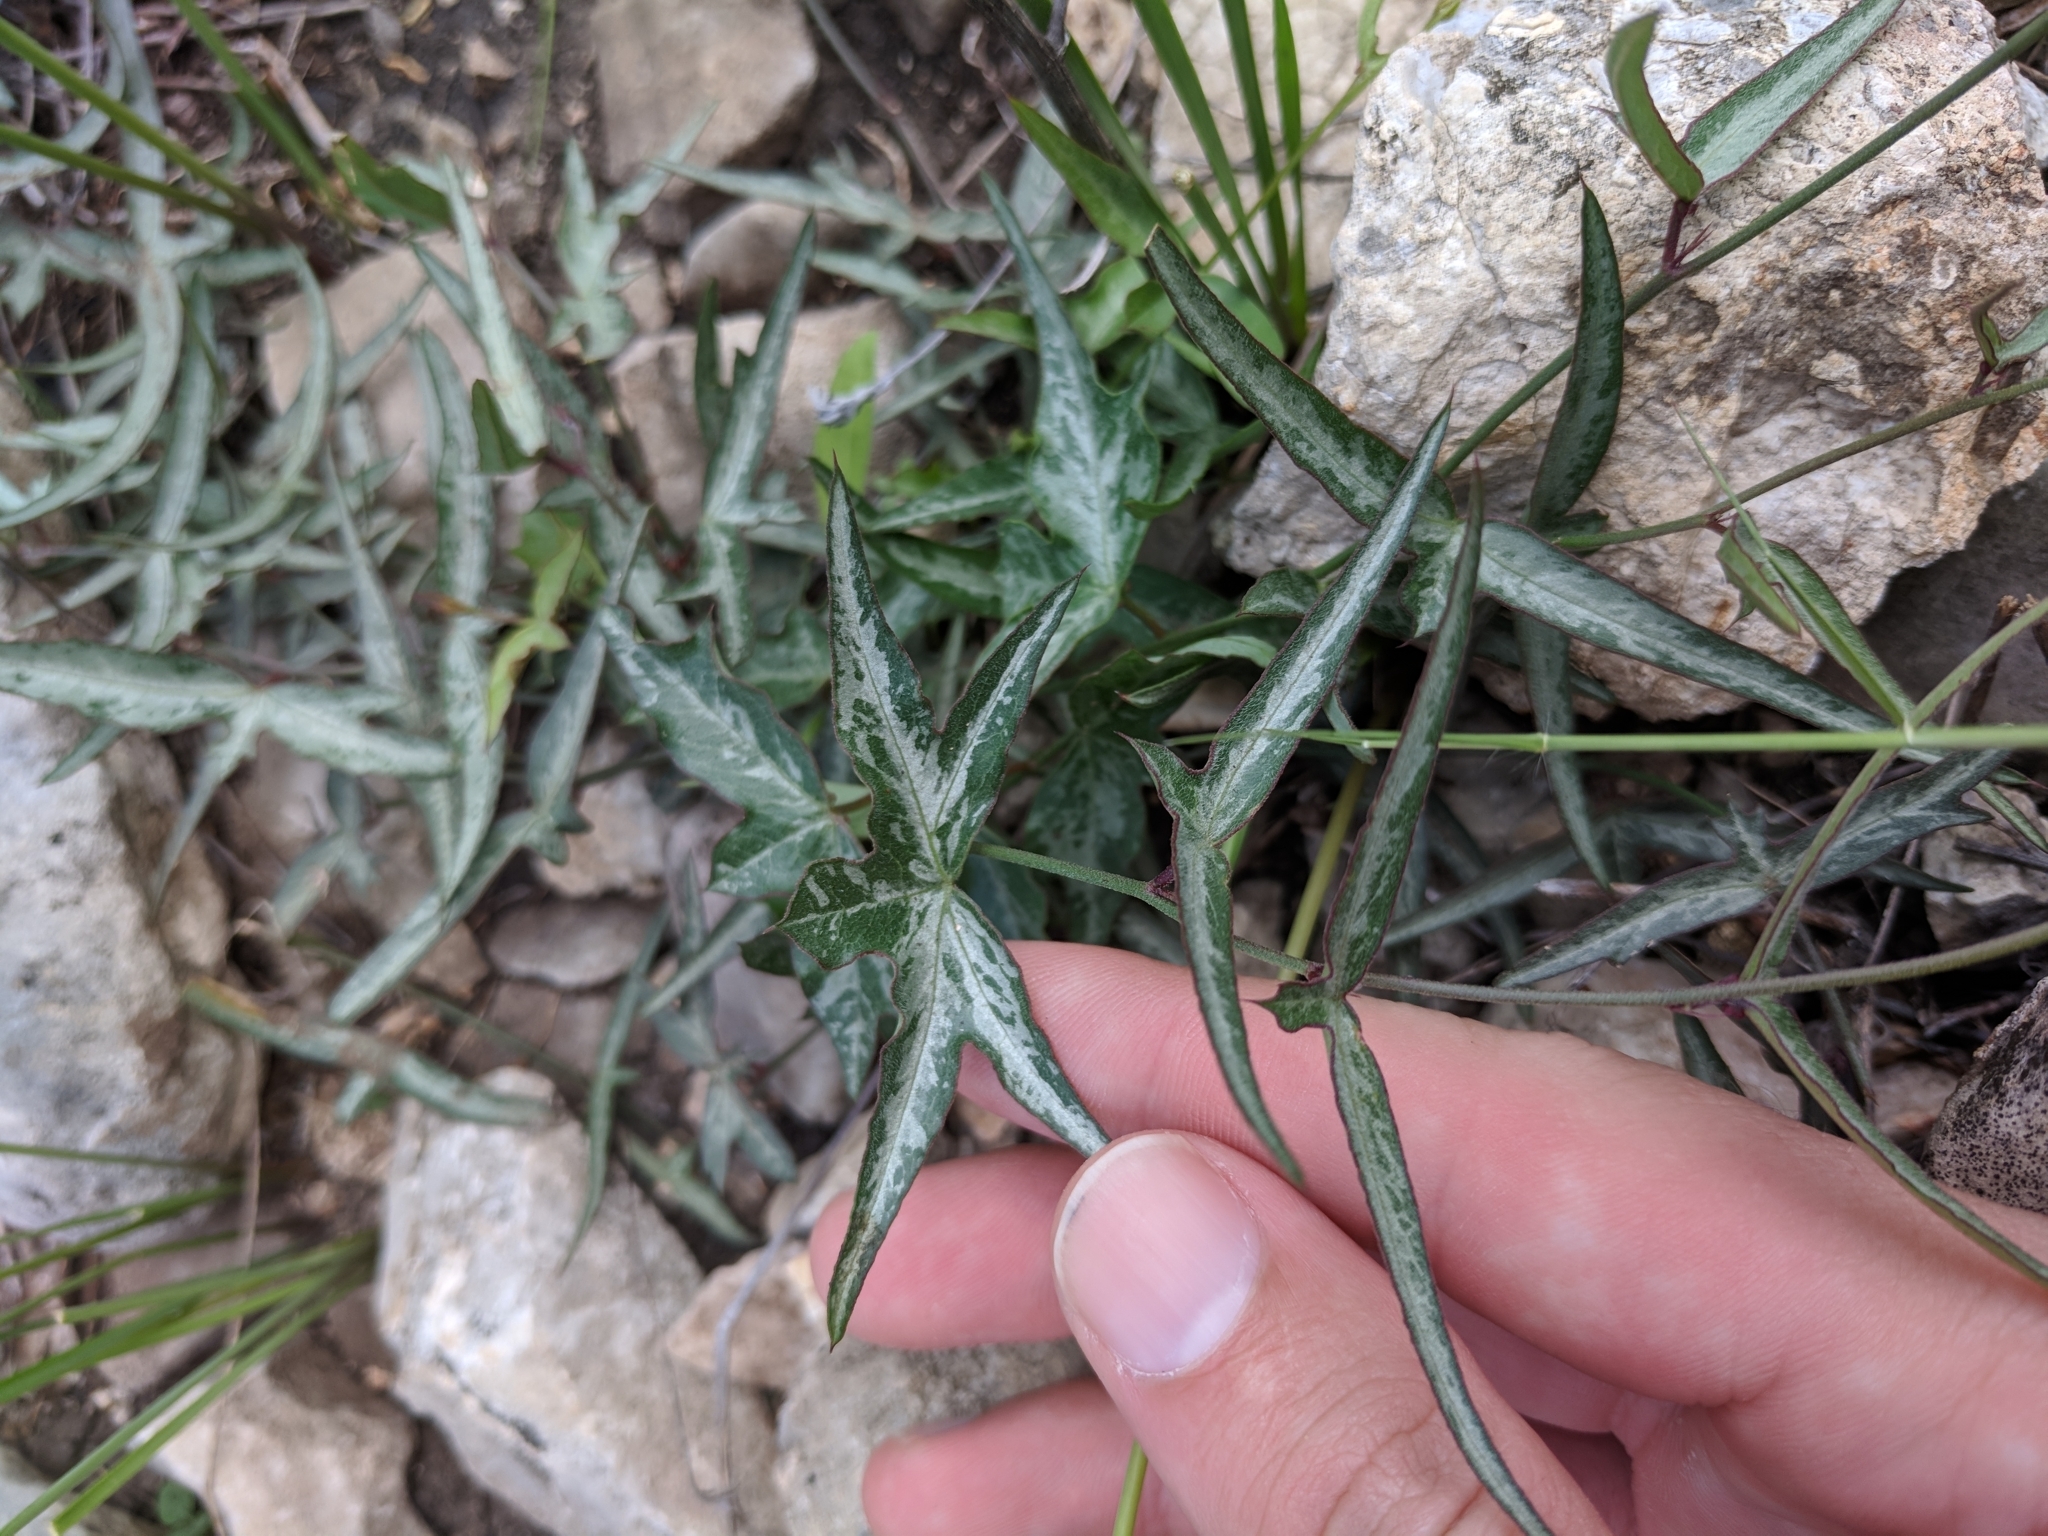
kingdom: Plantae
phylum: Tracheophyta
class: Magnoliopsida
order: Malpighiales
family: Passifloraceae
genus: Passiflora
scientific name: Passiflora tenuiloba
